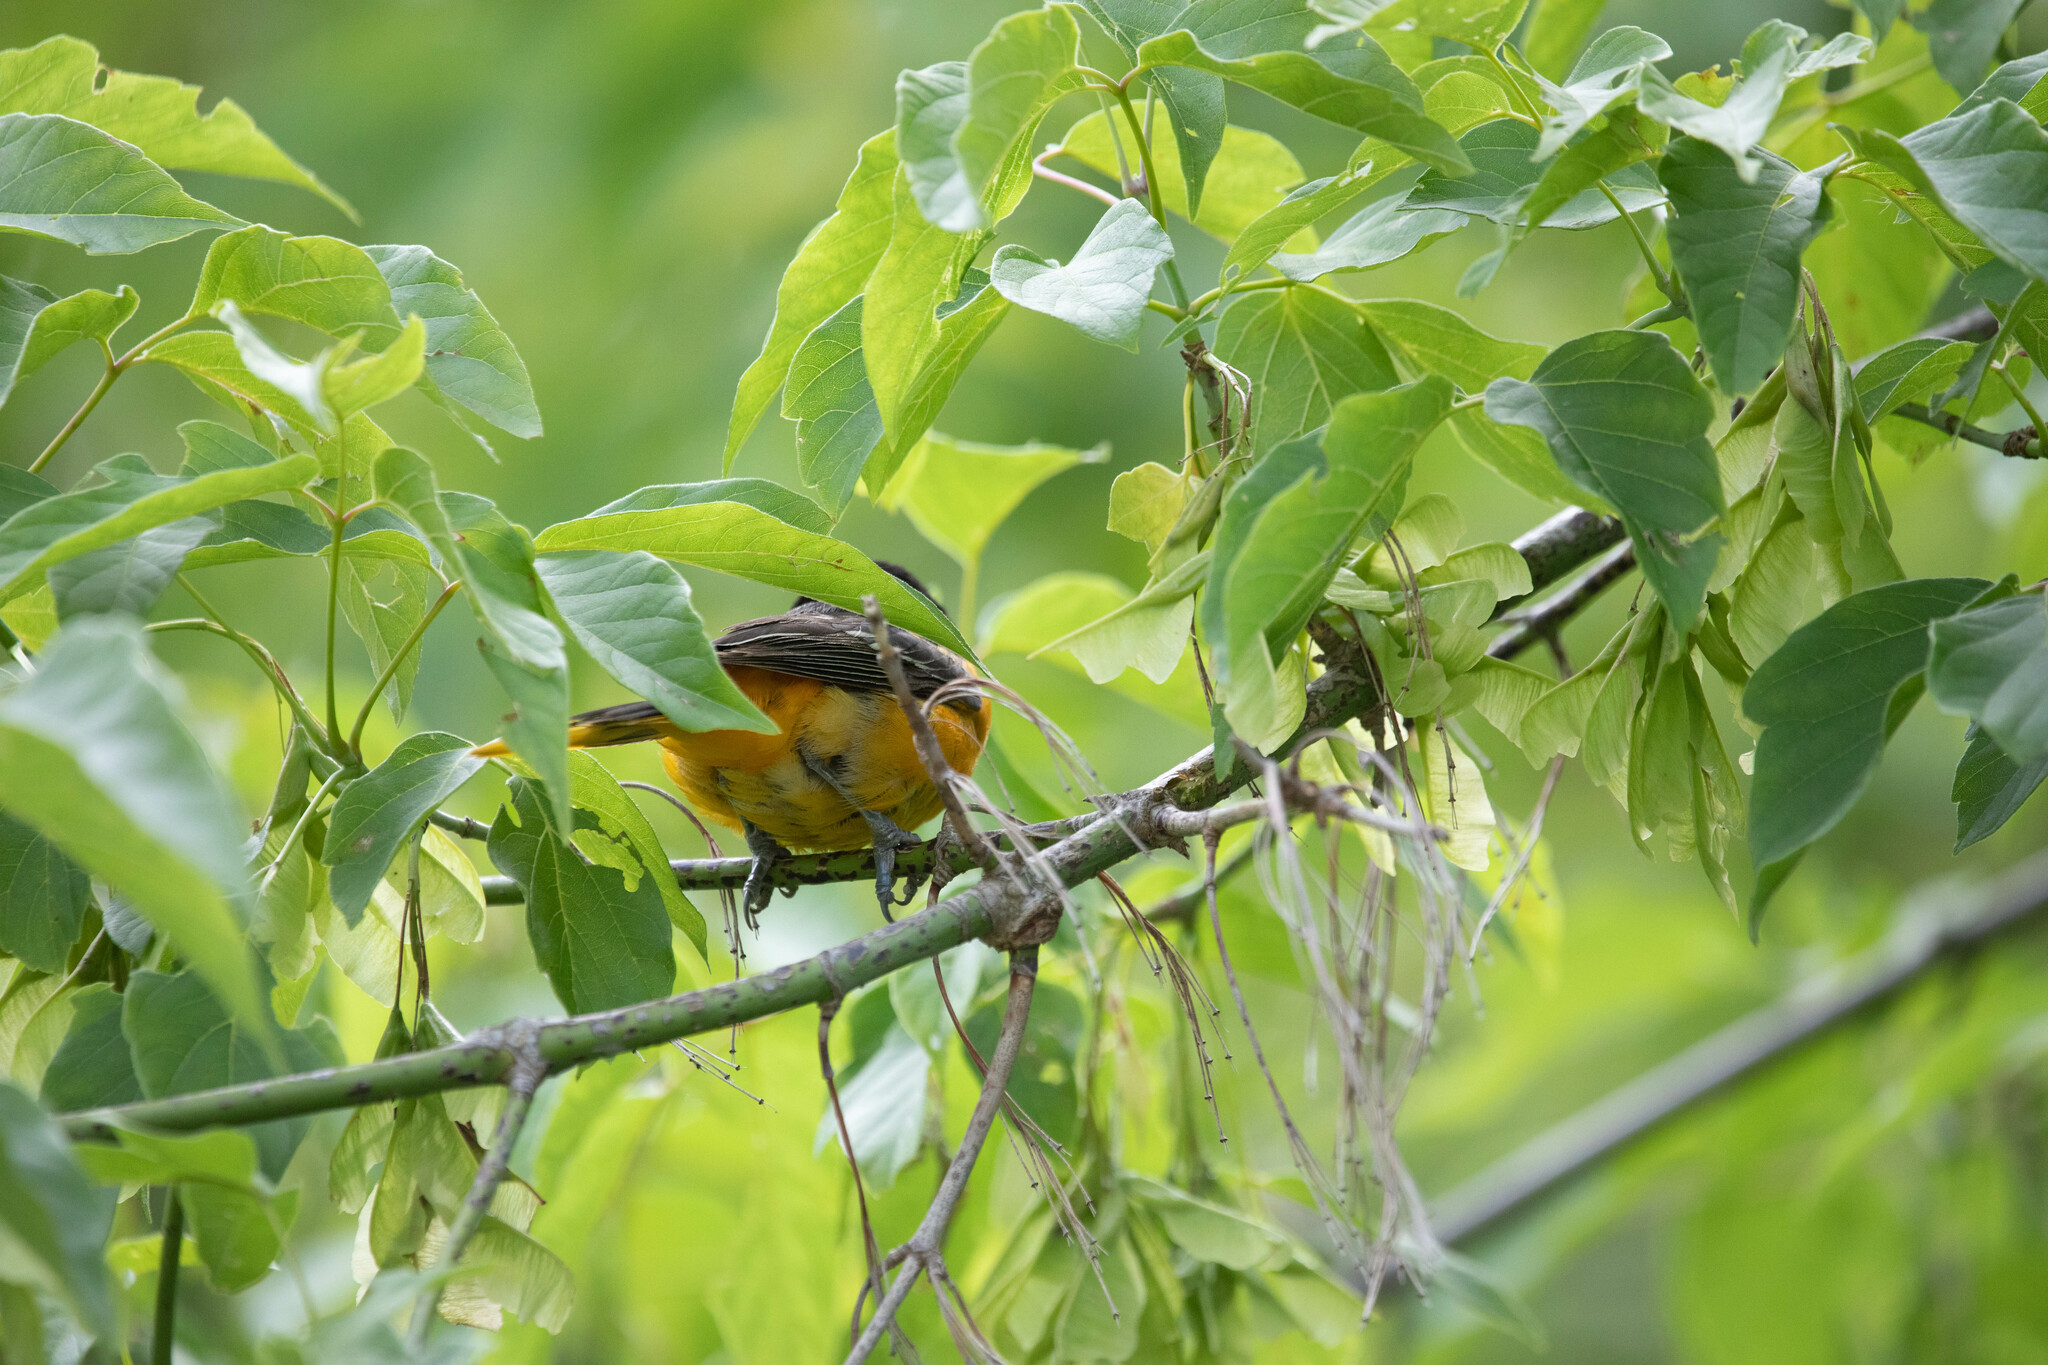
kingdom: Animalia
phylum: Chordata
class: Aves
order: Passeriformes
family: Icteridae
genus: Icterus
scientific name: Icterus galbula
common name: Baltimore oriole
